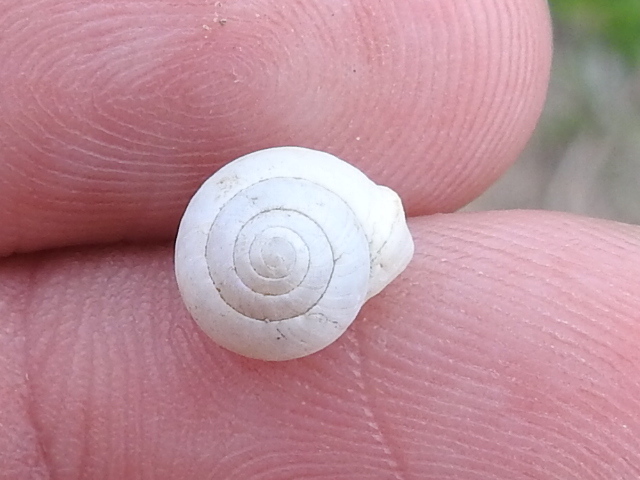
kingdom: Animalia
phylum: Mollusca
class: Gastropoda
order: Cycloneritida
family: Helicinidae
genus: Helicina
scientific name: Helicina orbiculata
